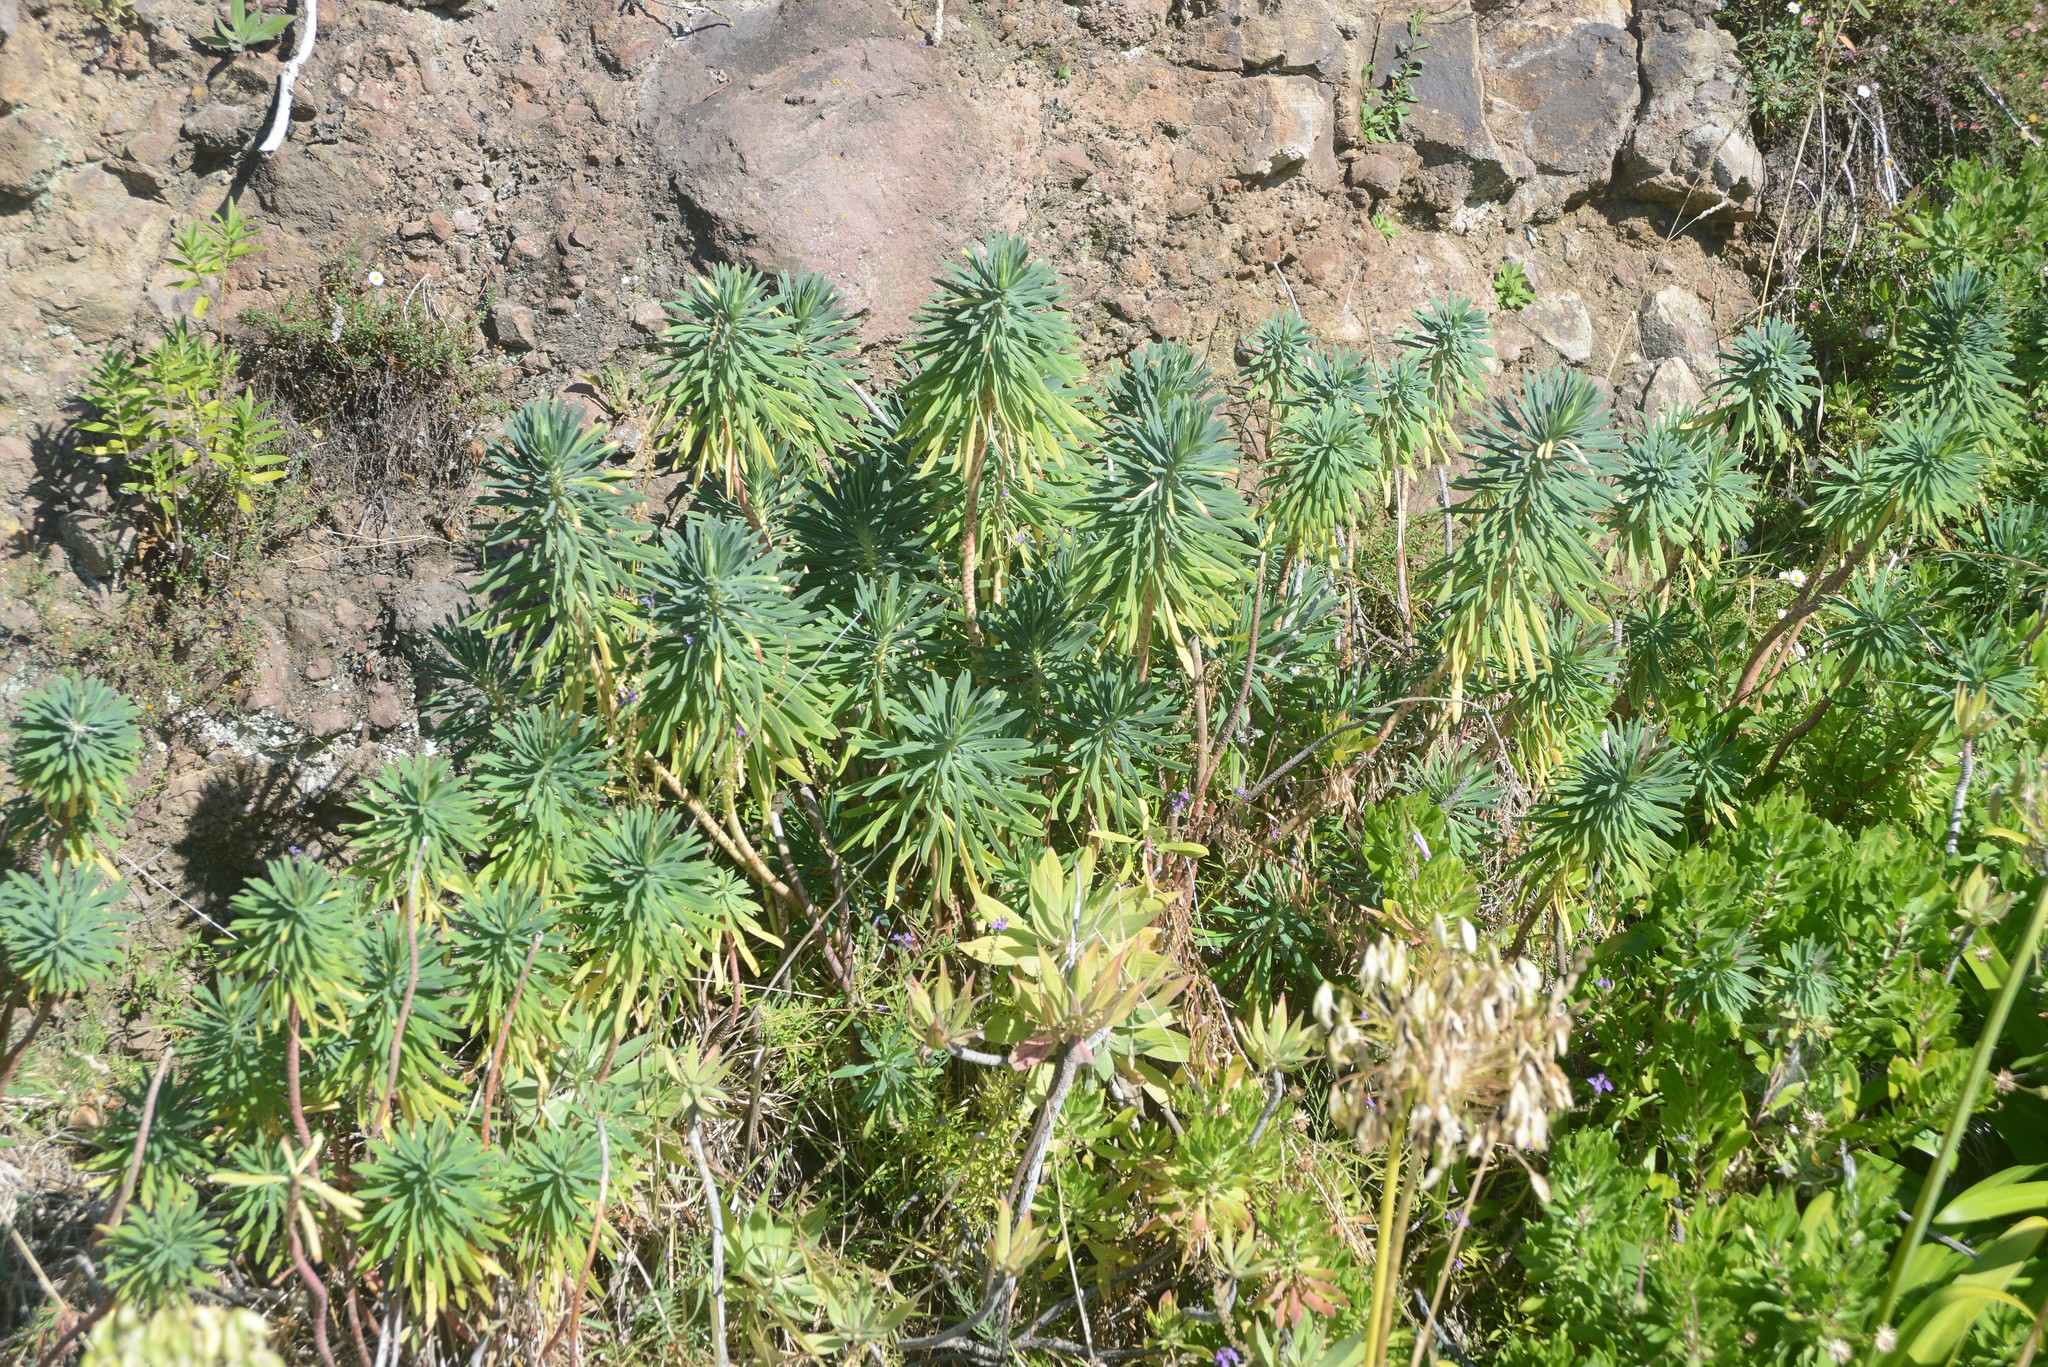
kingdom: Plantae
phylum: Tracheophyta
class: Magnoliopsida
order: Malpighiales
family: Euphorbiaceae
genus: Euphorbia
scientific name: Euphorbia characias
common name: Mediterranean spurge
